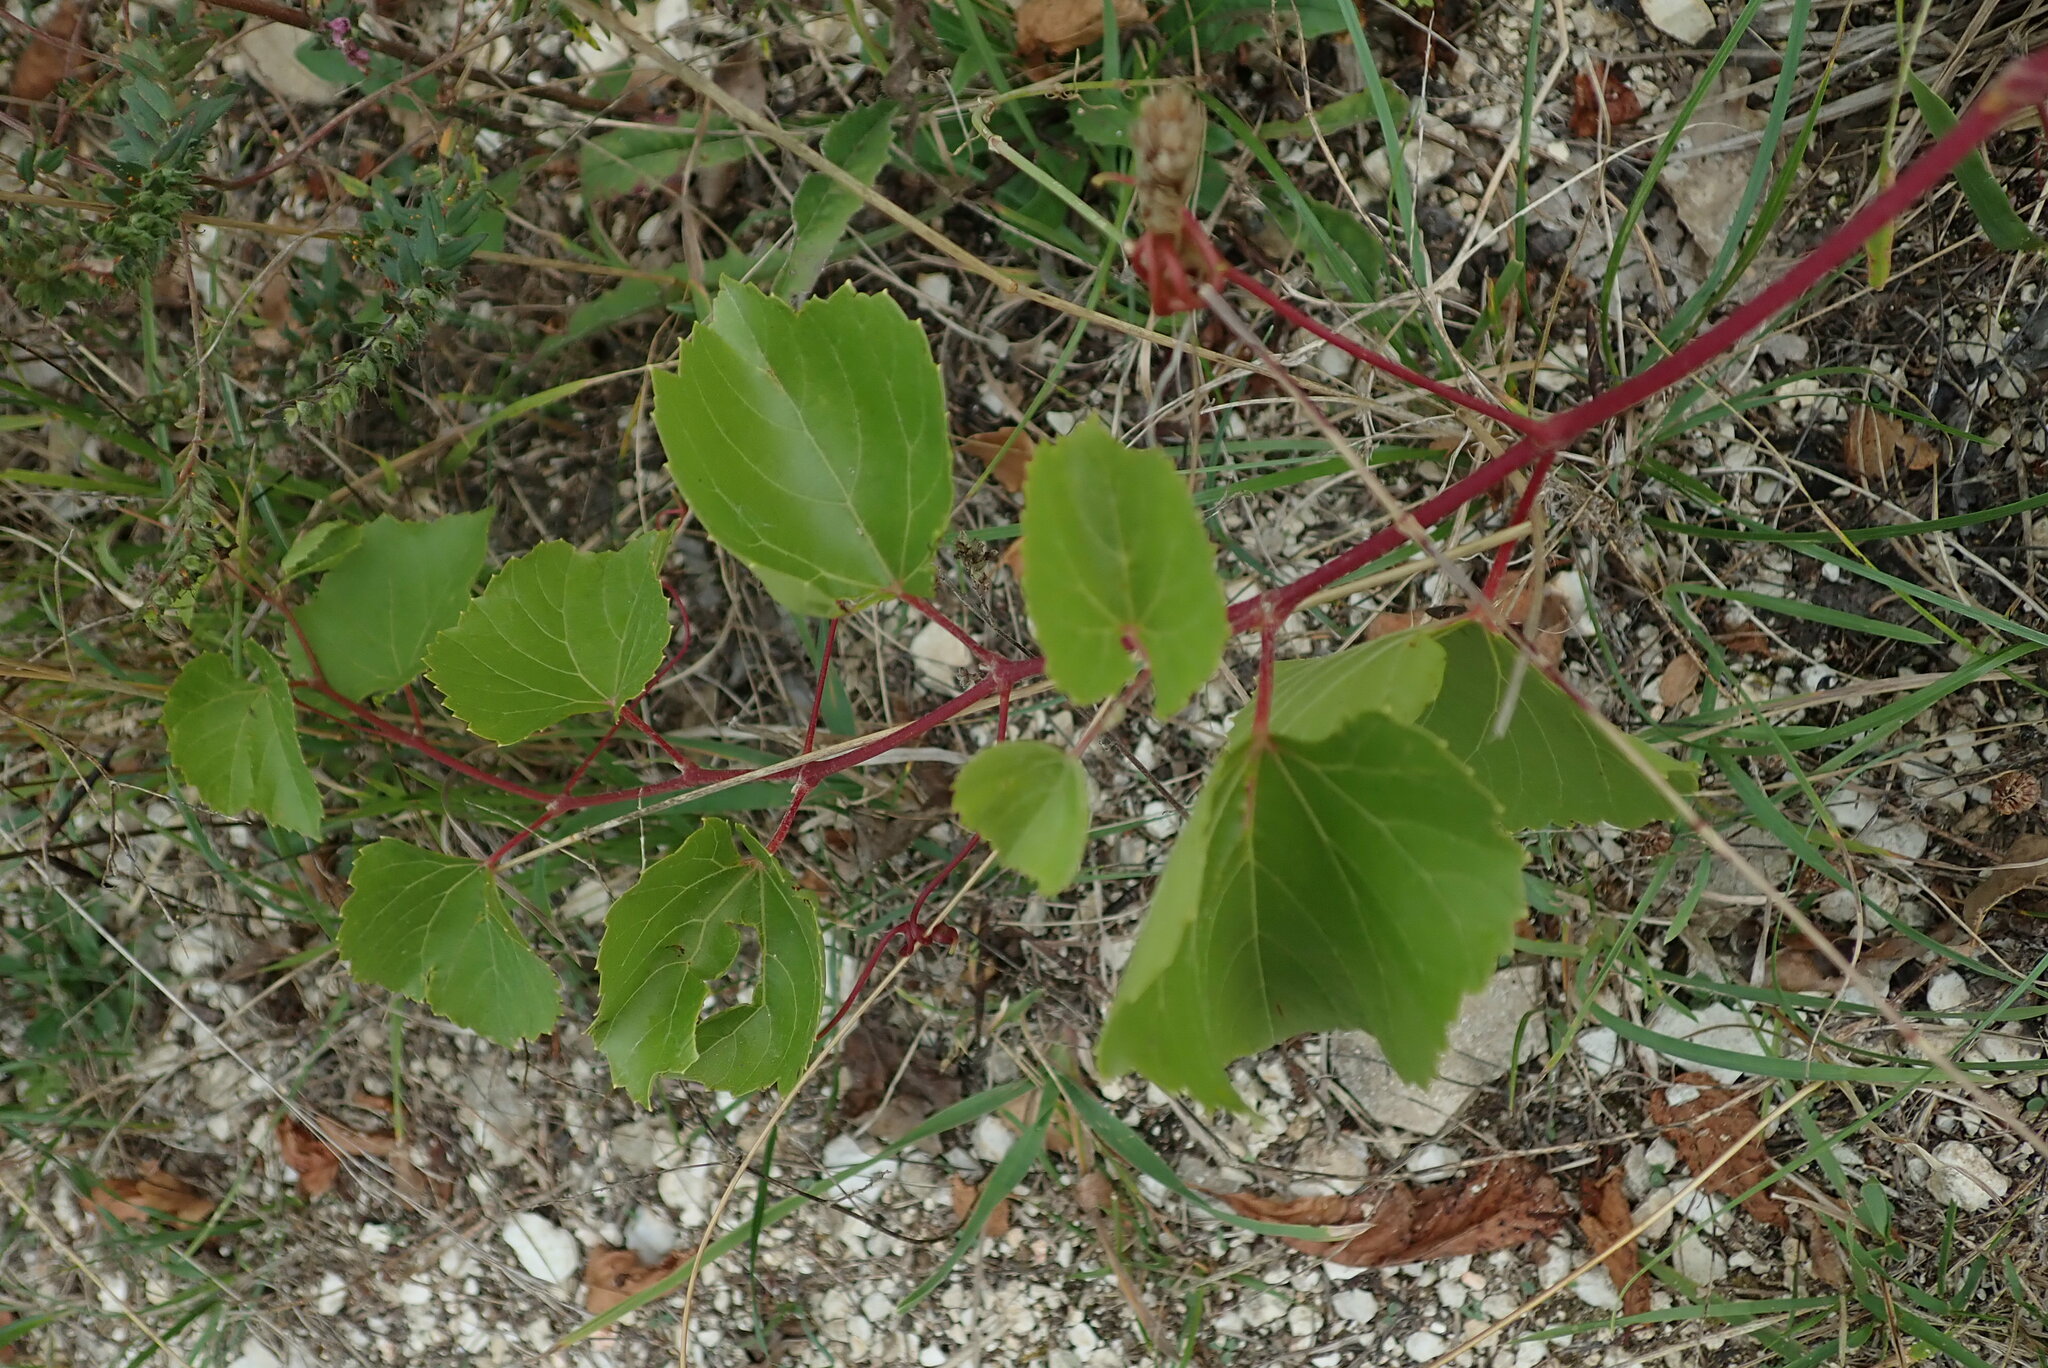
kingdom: Plantae
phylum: Tracheophyta
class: Magnoliopsida
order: Vitales
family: Vitaceae
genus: Vitis
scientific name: Vitis ruggerii
